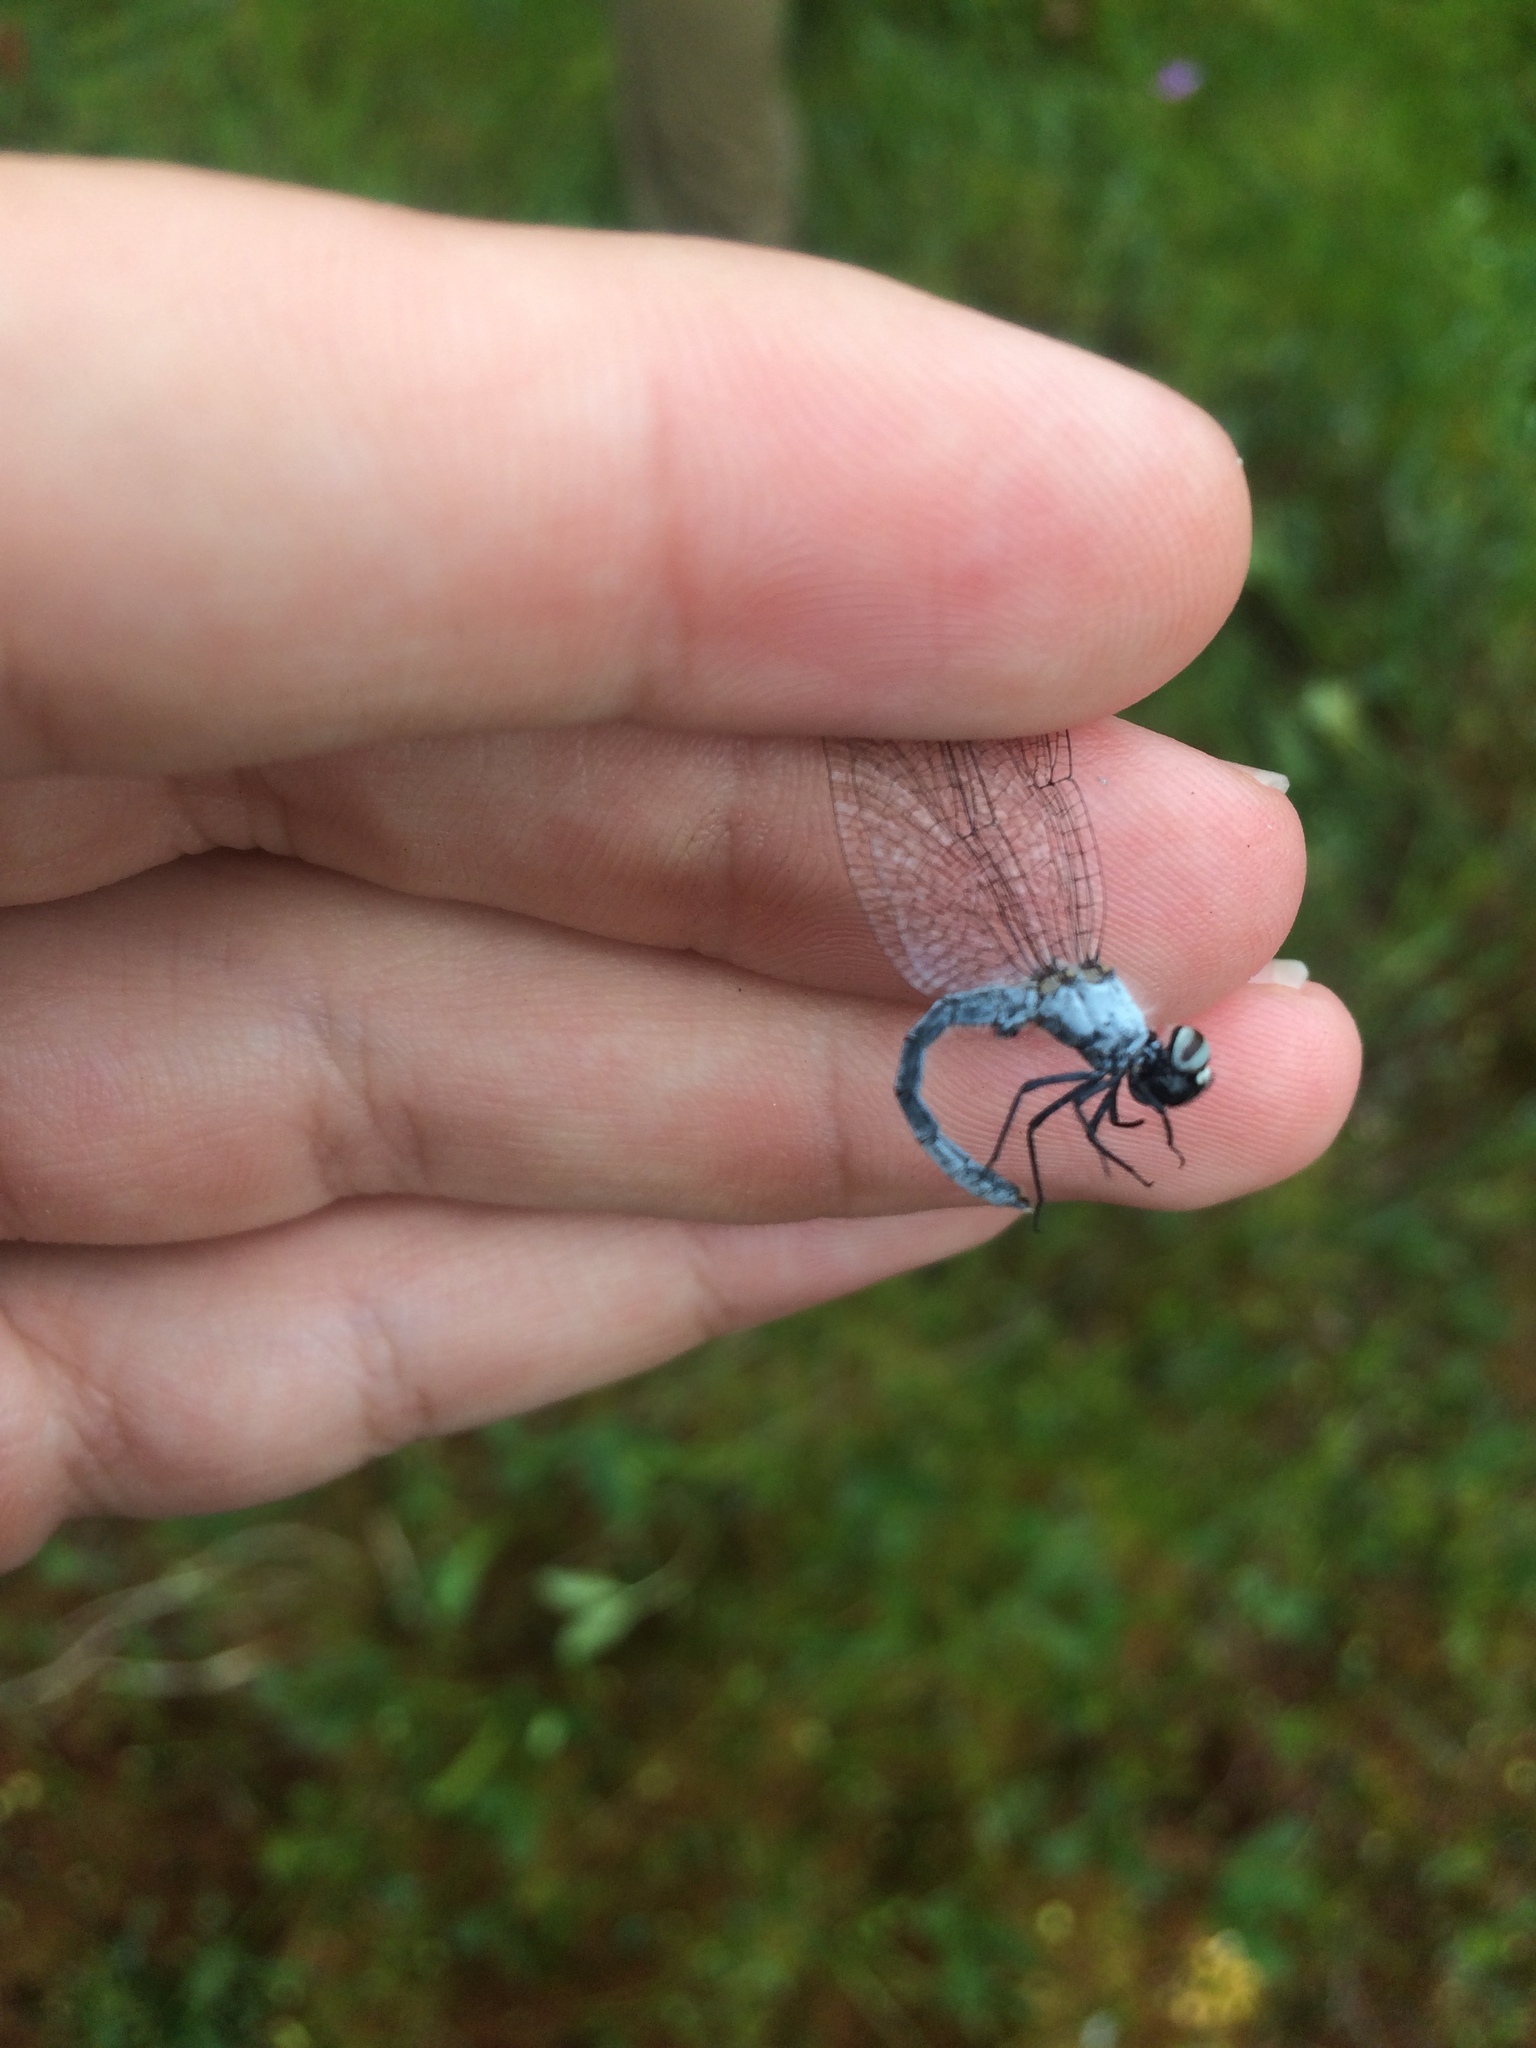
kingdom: Animalia
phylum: Arthropoda
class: Insecta
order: Odonata
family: Libellulidae
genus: Nannothemis
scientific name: Nannothemis bella
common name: Elfin skimmer
